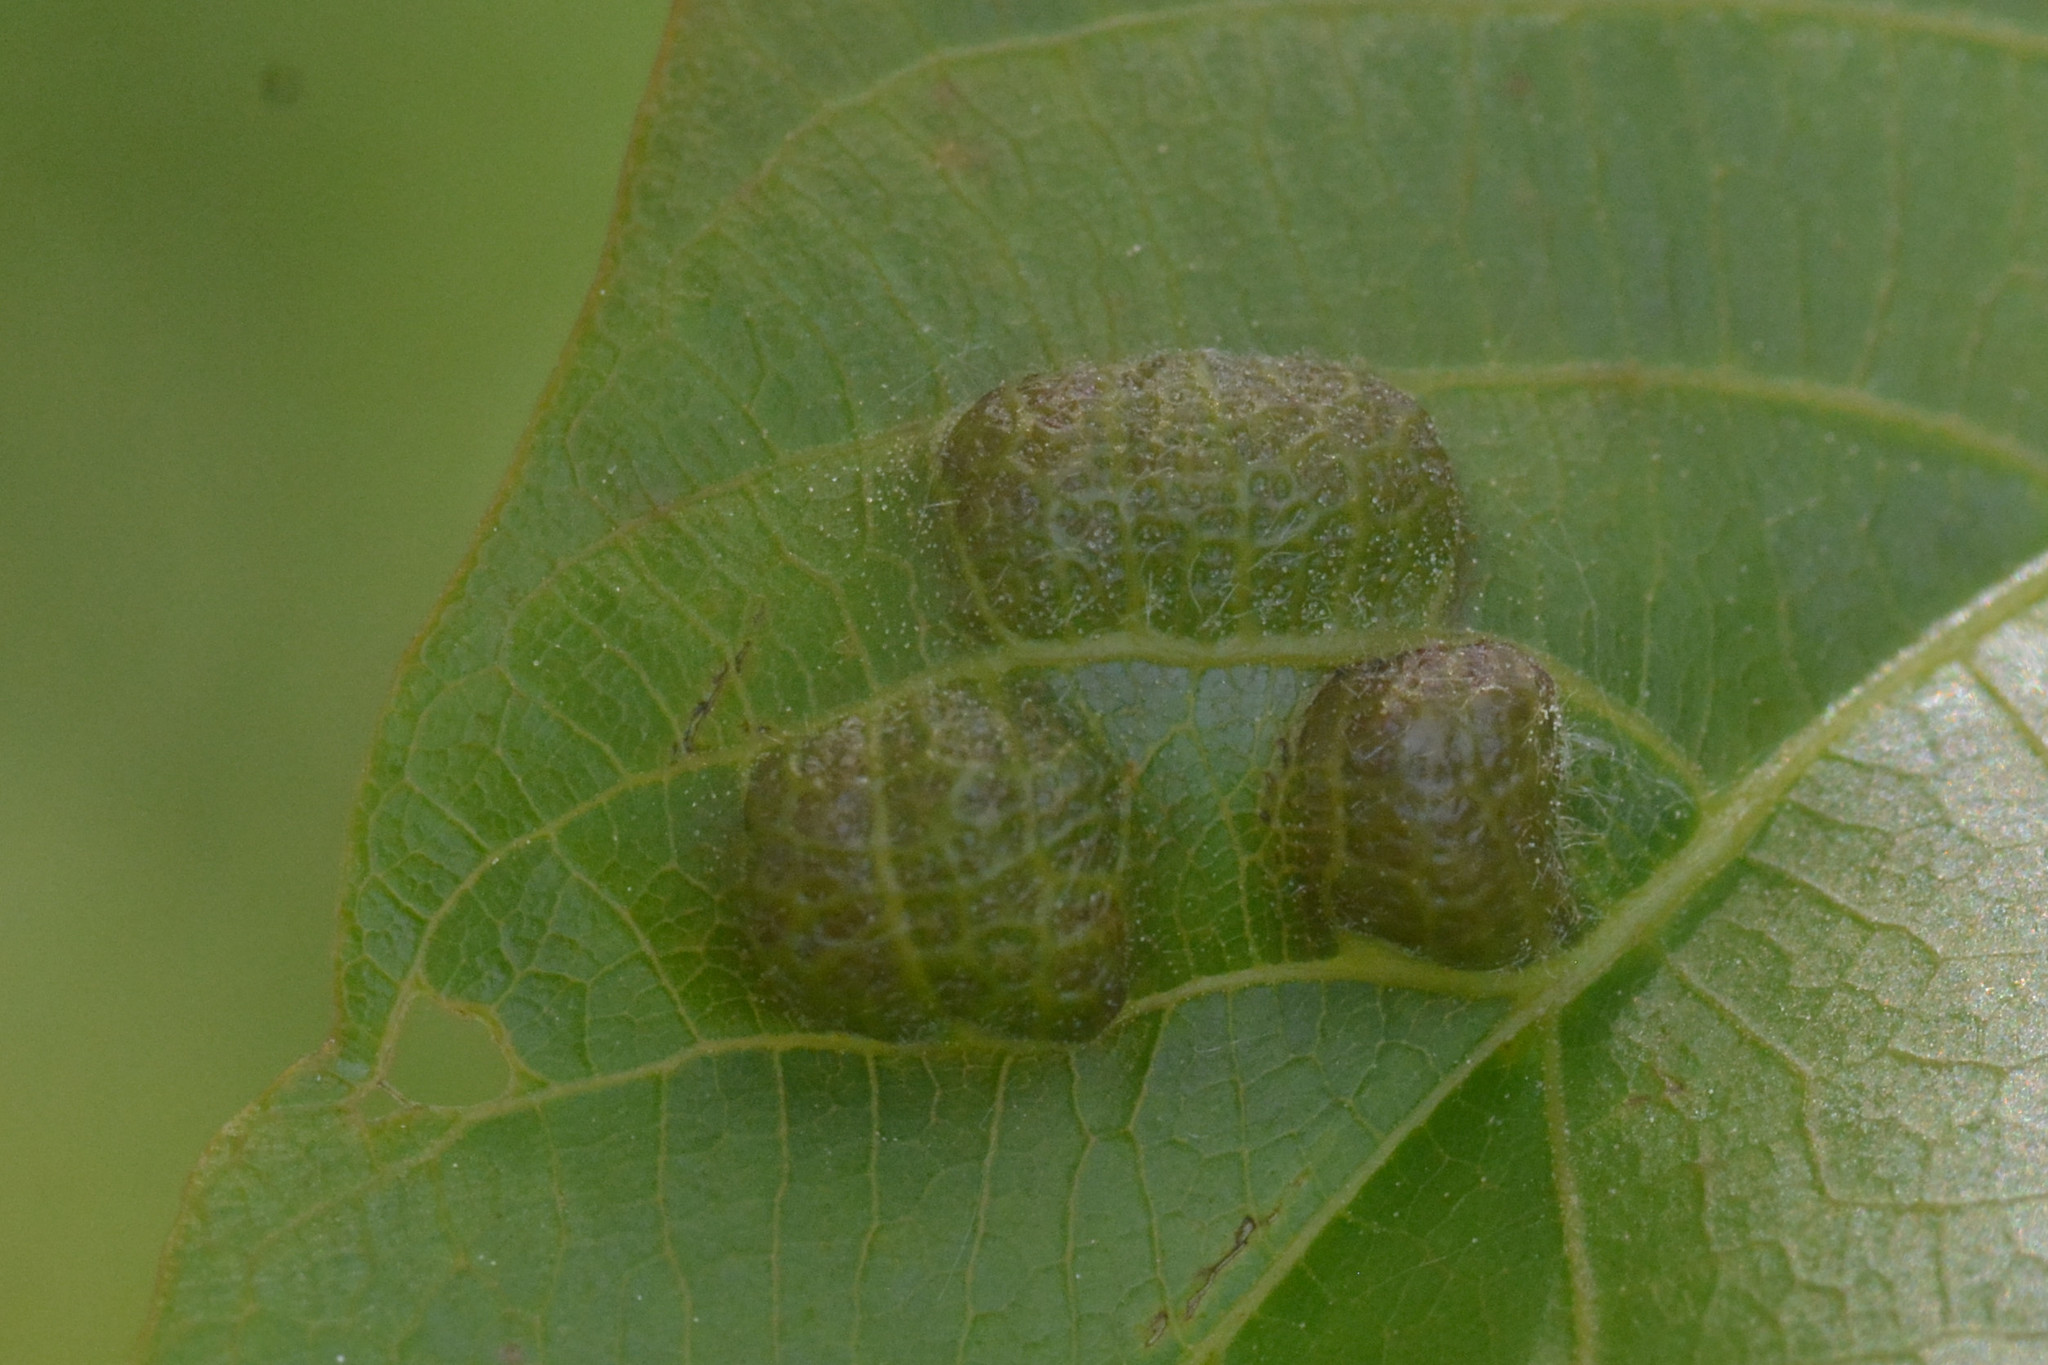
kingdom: Plantae
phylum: Tracheophyta
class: Magnoliopsida
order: Fagales
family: Juglandaceae
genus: Juglans
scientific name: Juglans regia
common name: Walnut
